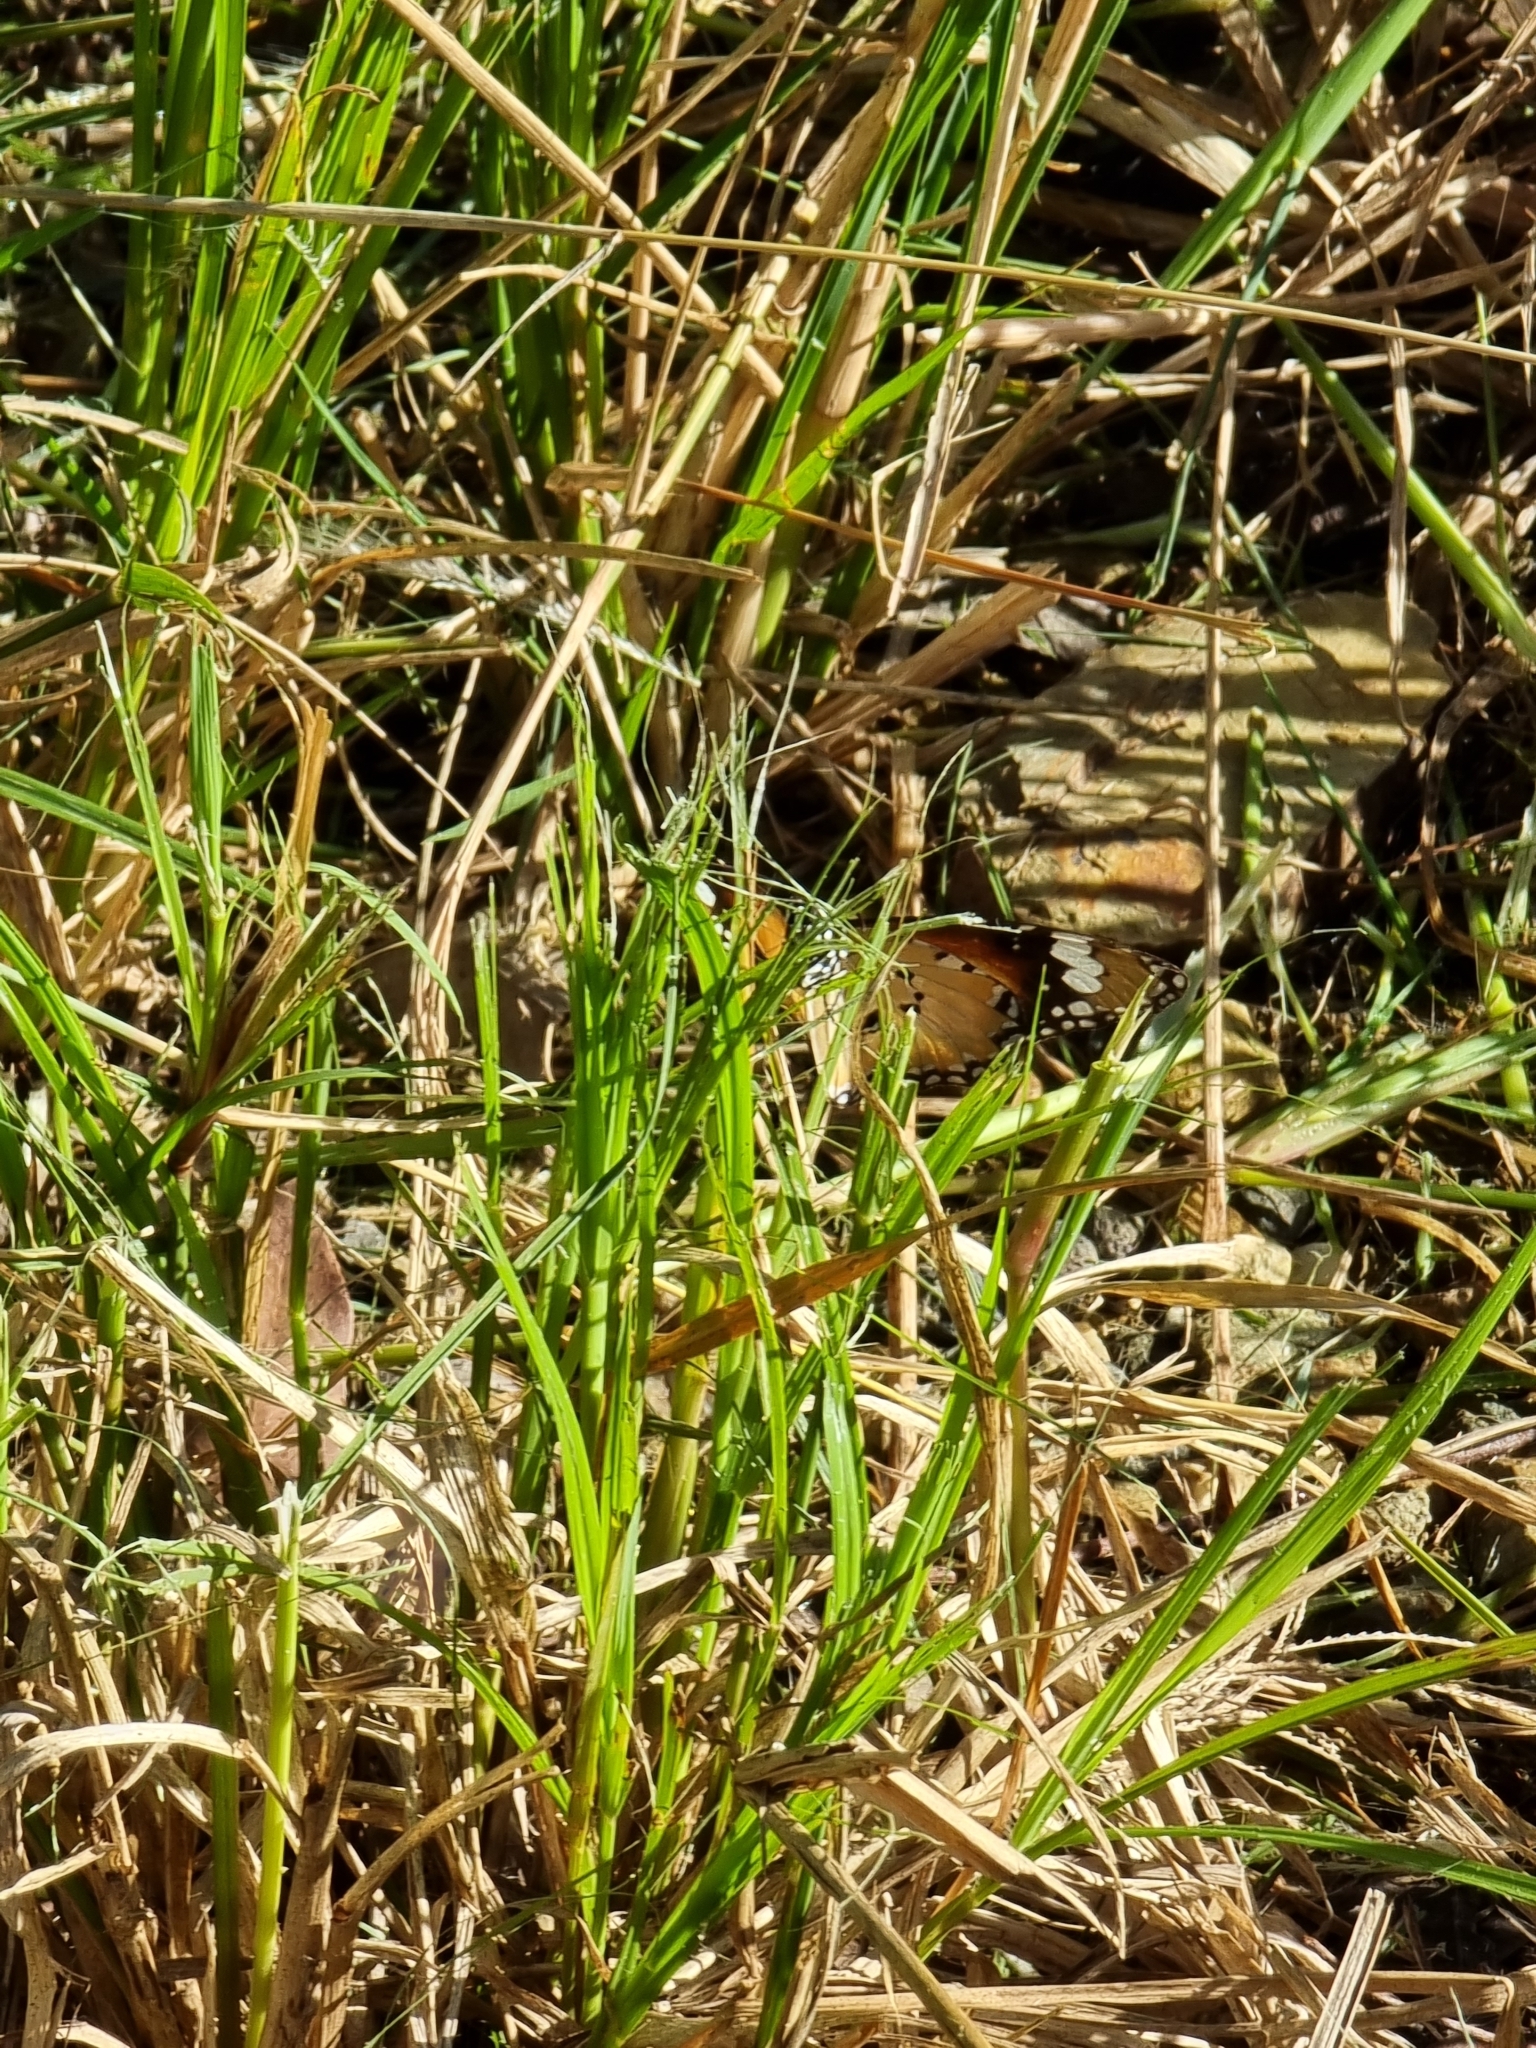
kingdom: Animalia
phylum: Arthropoda
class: Insecta
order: Lepidoptera
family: Nymphalidae
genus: Danaus
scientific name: Danaus chrysippus
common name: Plain tiger
